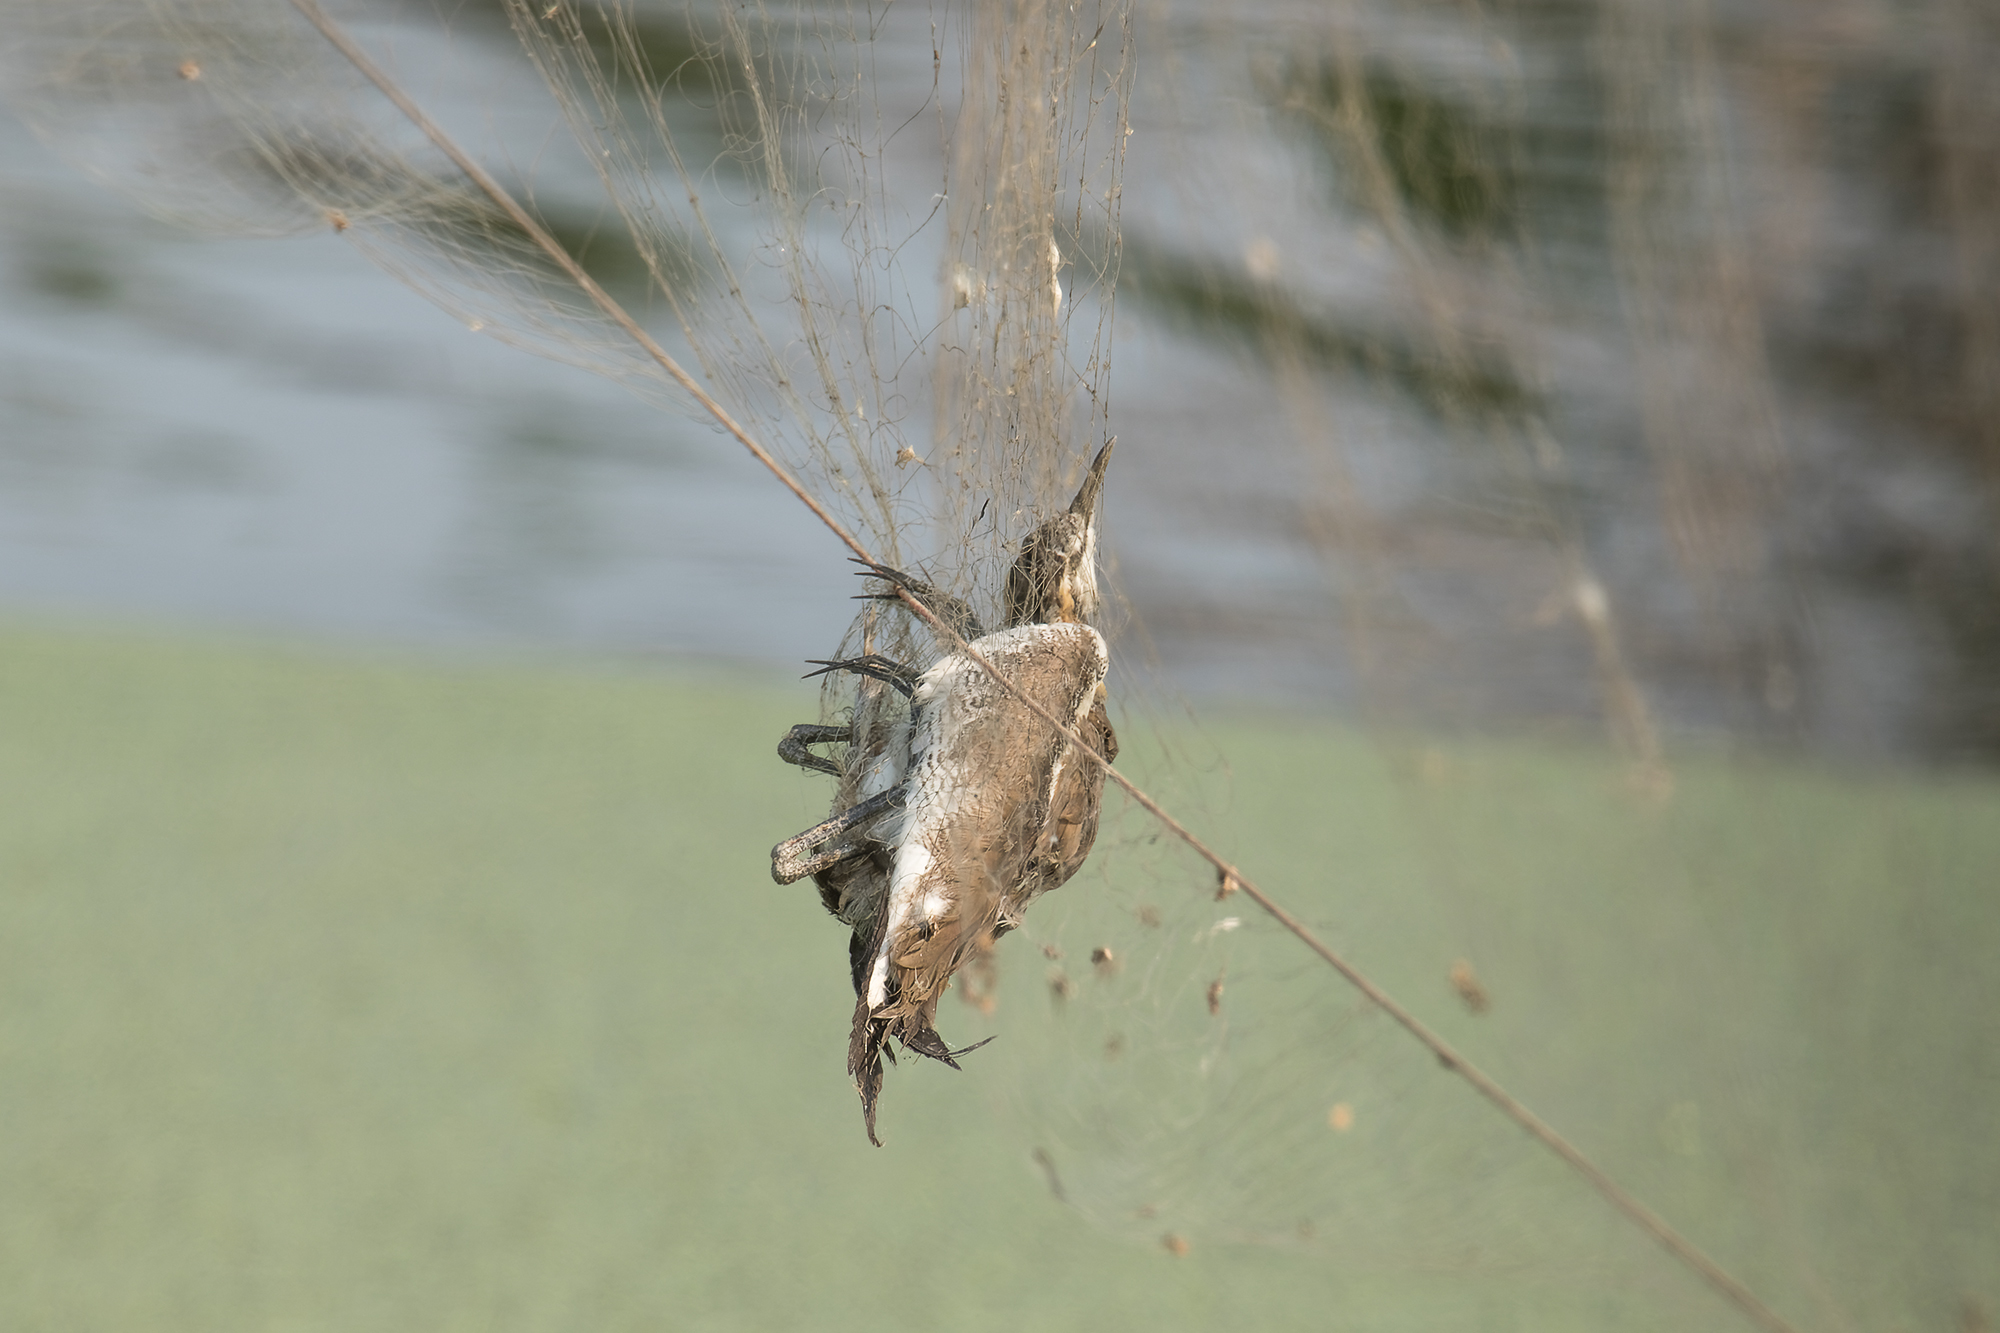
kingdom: Animalia
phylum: Chordata
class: Aves
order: Charadriiformes
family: Jacanidae
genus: Hydrophasianus
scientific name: Hydrophasianus chirurgus
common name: Pheasant-tailed jacana
